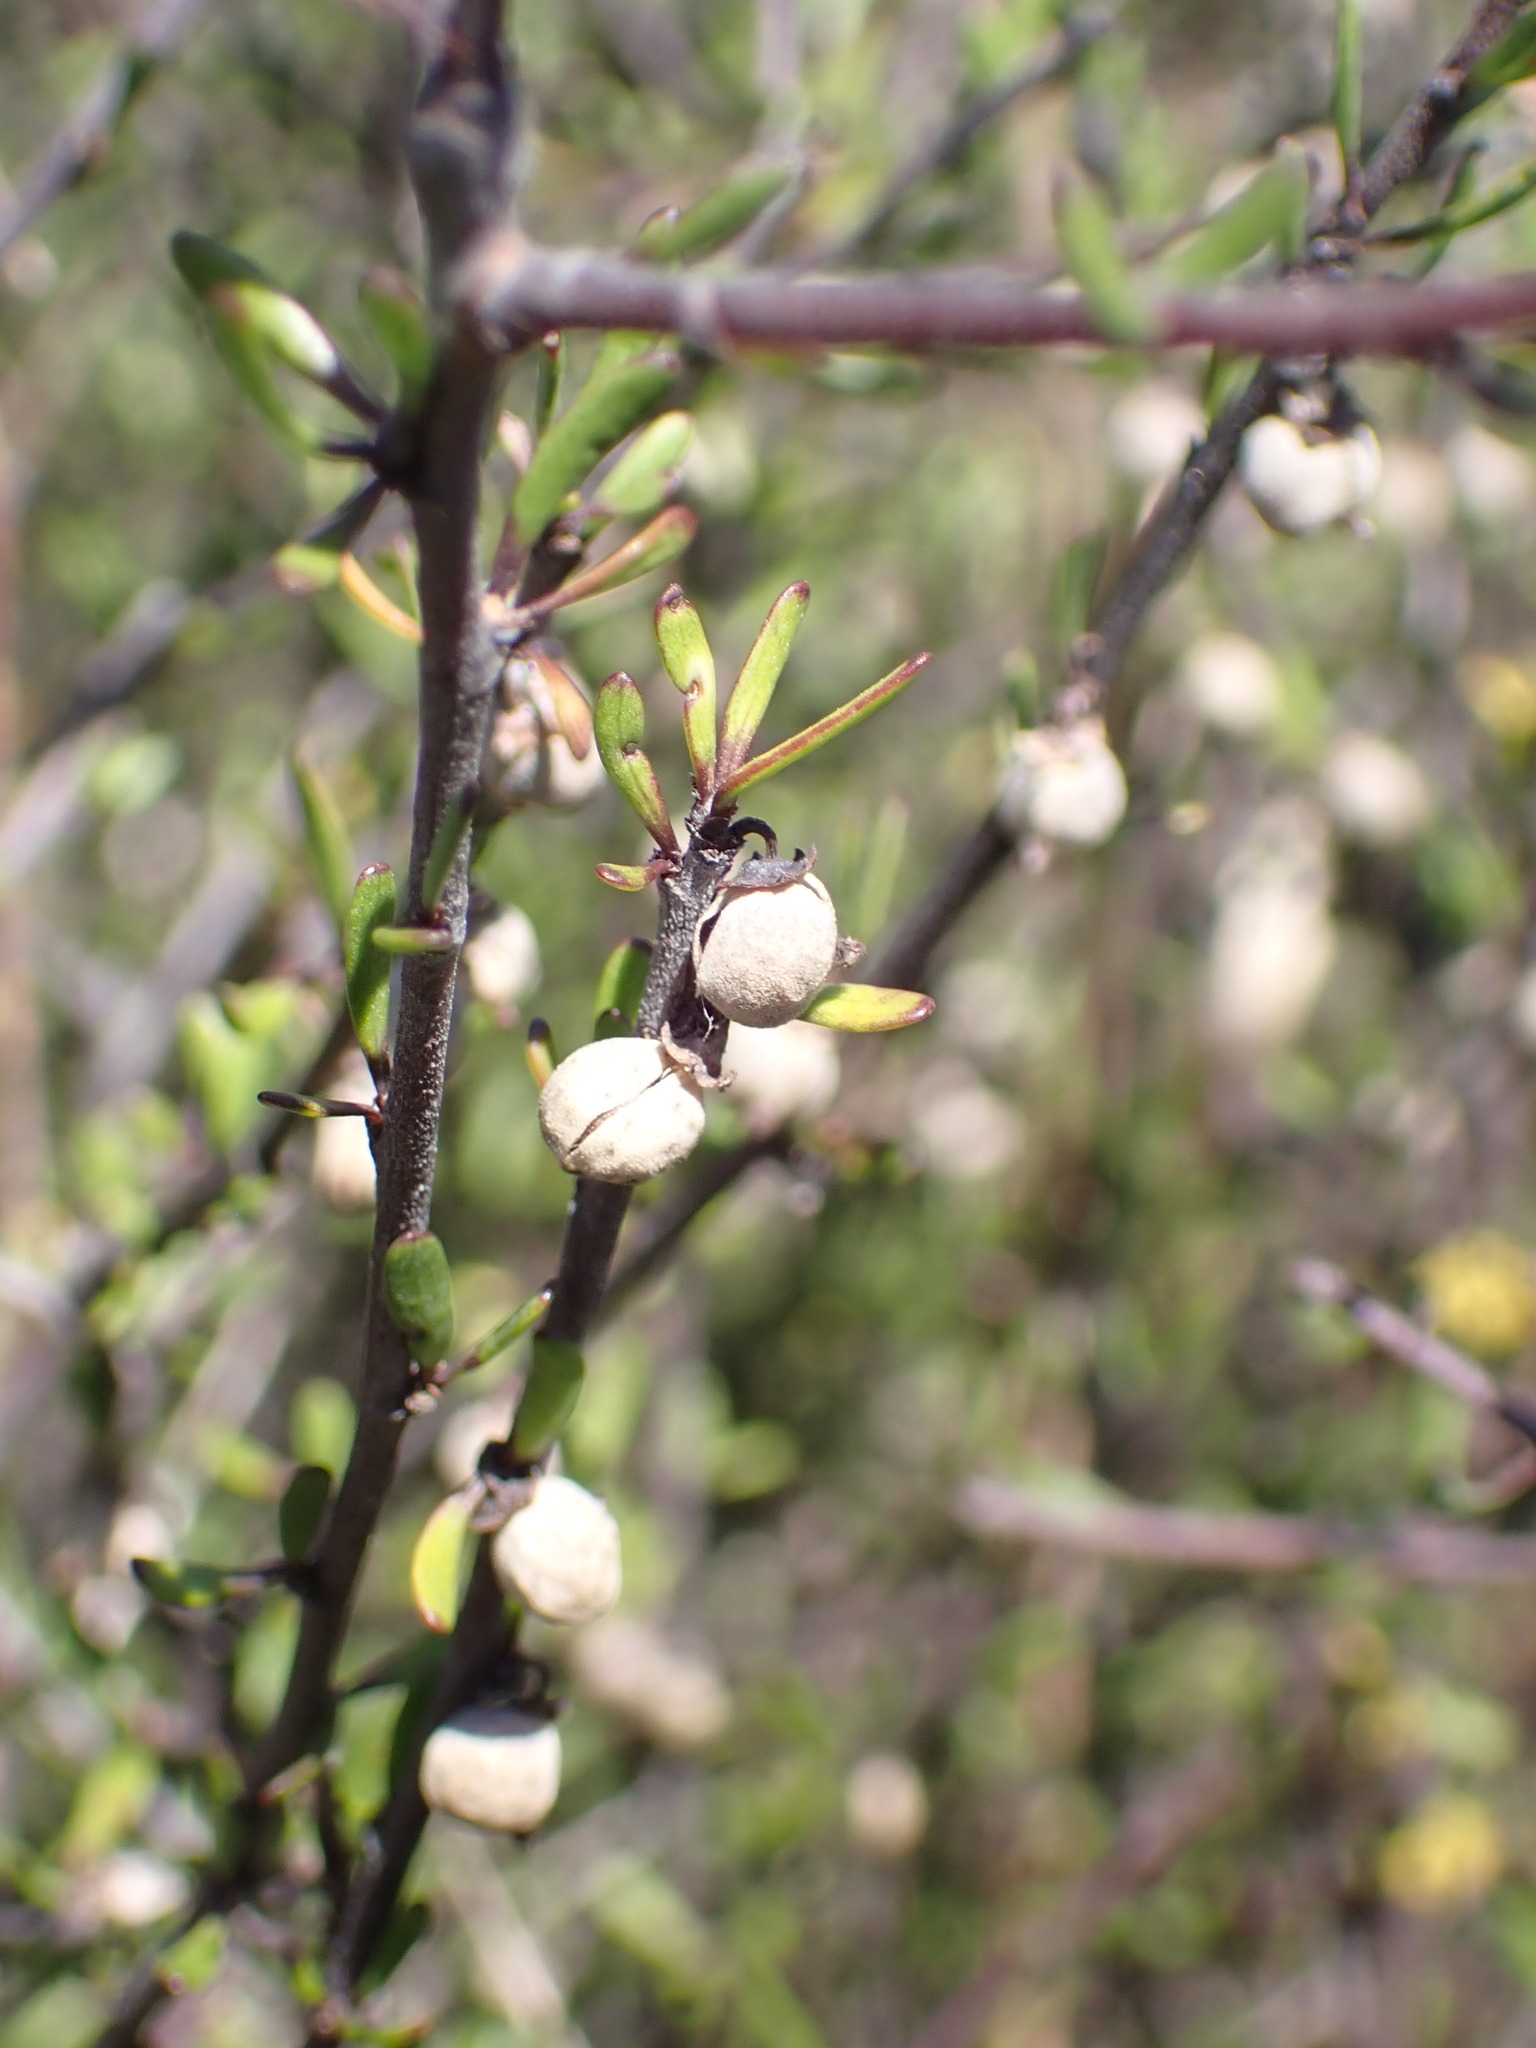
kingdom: Plantae
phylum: Tracheophyta
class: Magnoliopsida
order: Malvales
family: Malvaceae
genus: Plagianthus
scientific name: Plagianthus divaricatus
